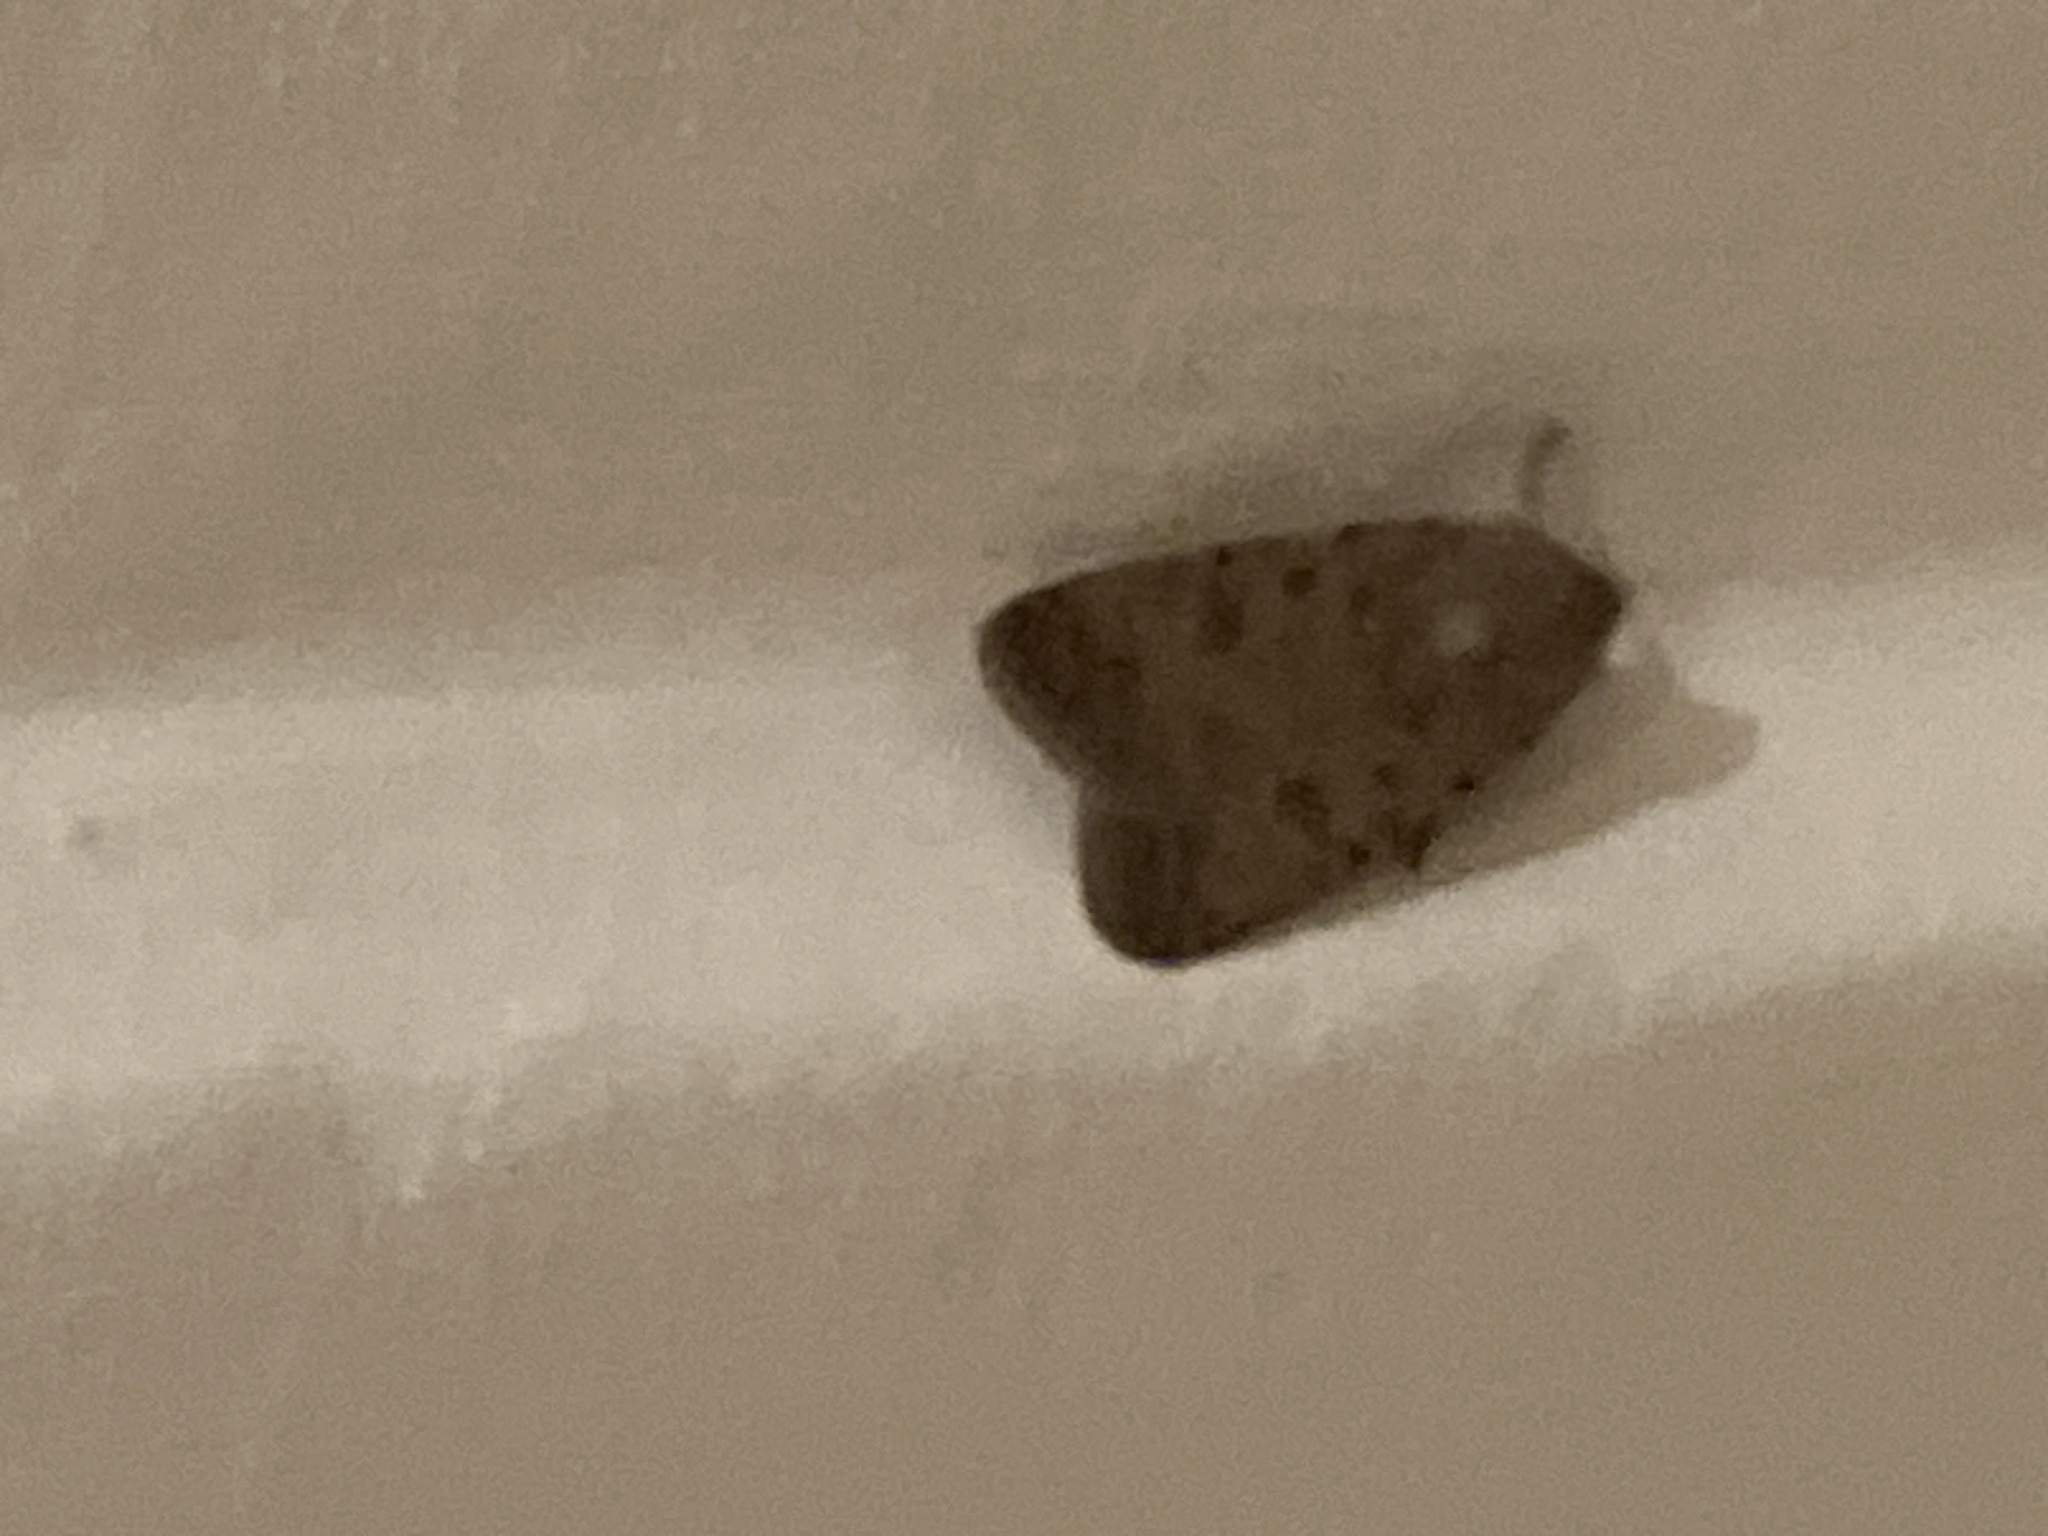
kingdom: Animalia
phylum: Arthropoda
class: Insecta
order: Lepidoptera
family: Noctuidae
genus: Caradrina
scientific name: Caradrina clavipalpis
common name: Pale mottled willow
